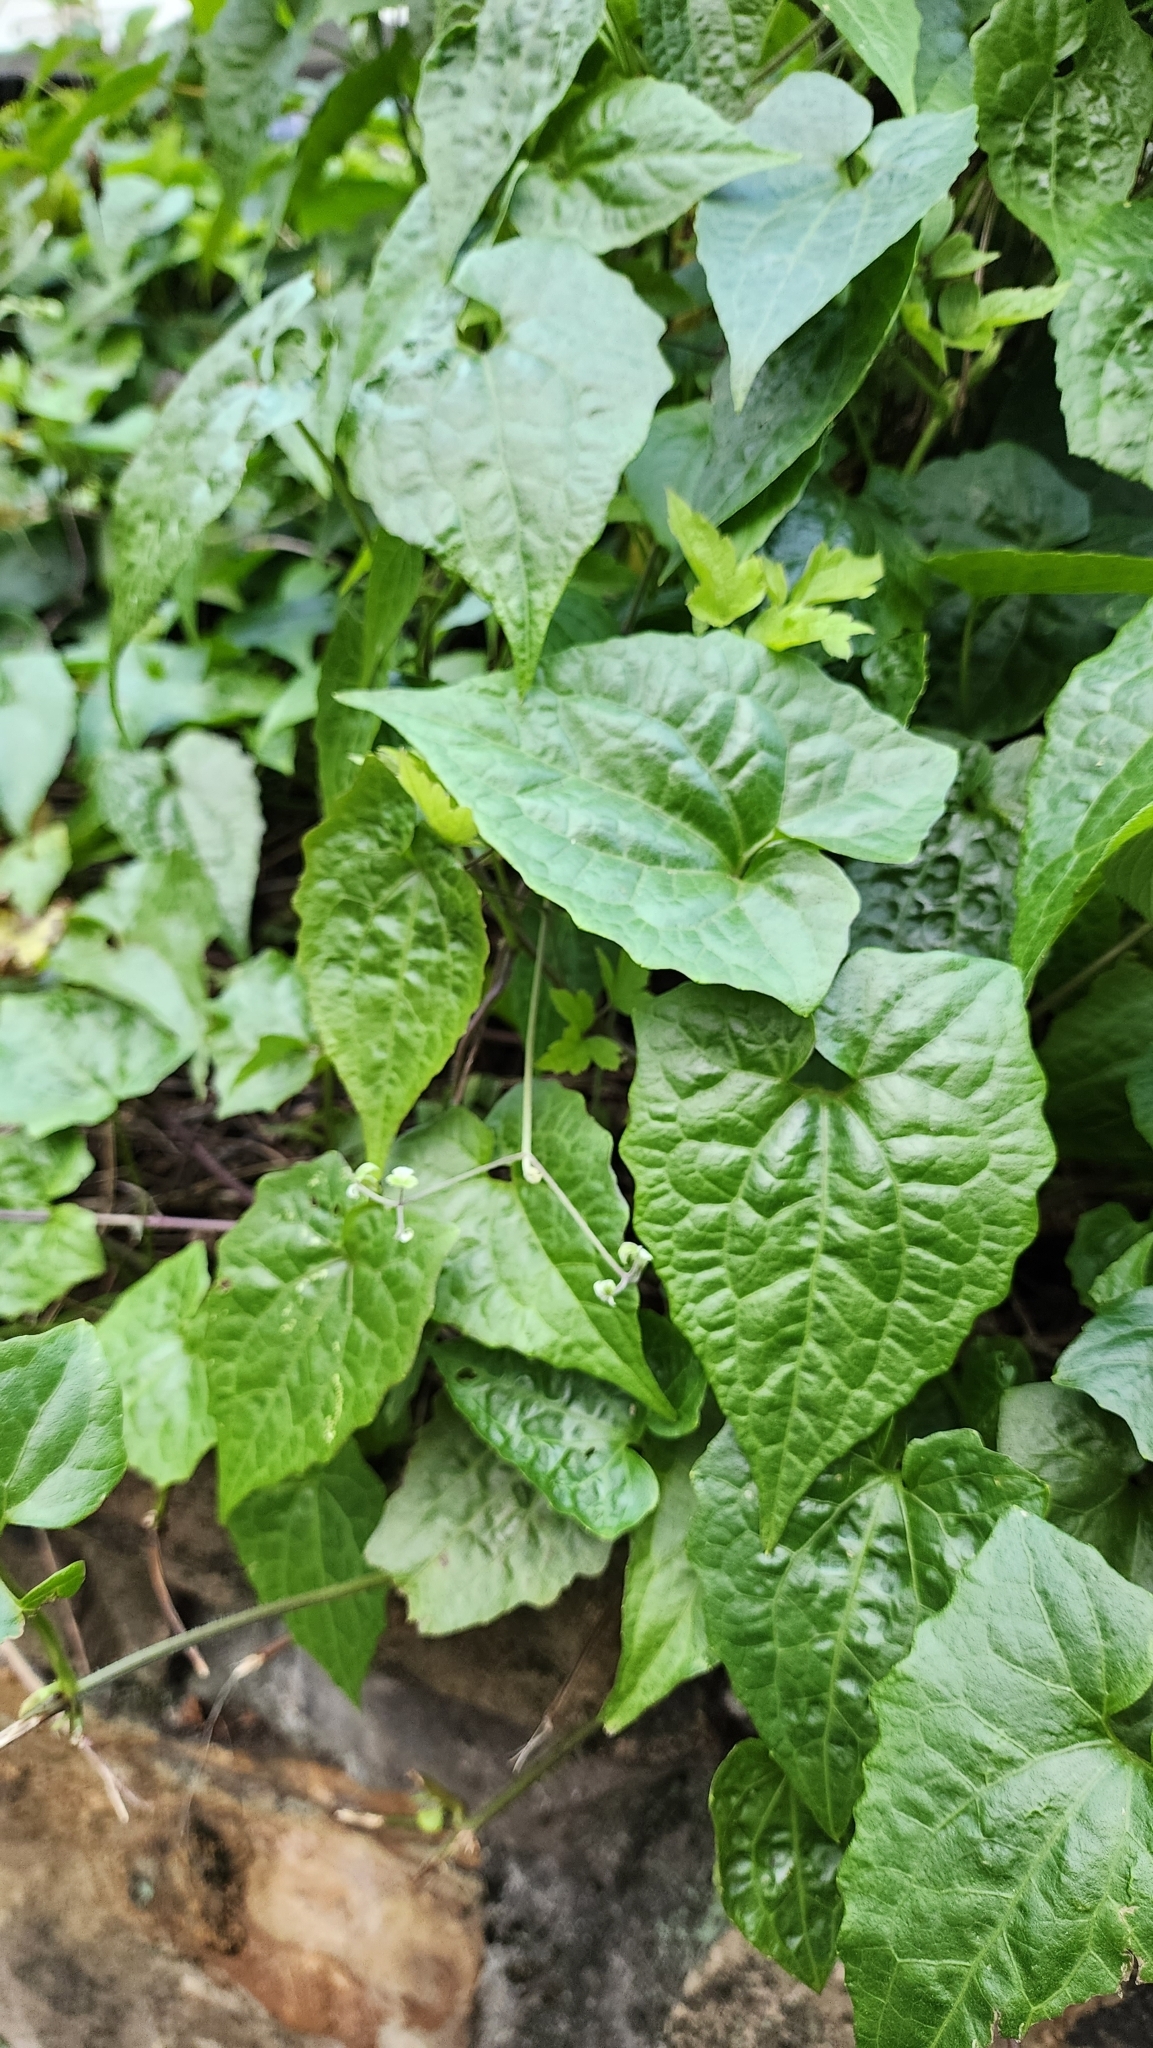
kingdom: Plantae
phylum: Tracheophyta
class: Magnoliopsida
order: Asterales
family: Asteraceae
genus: Mikania
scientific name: Mikania micrantha
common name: Mile-a-minute
